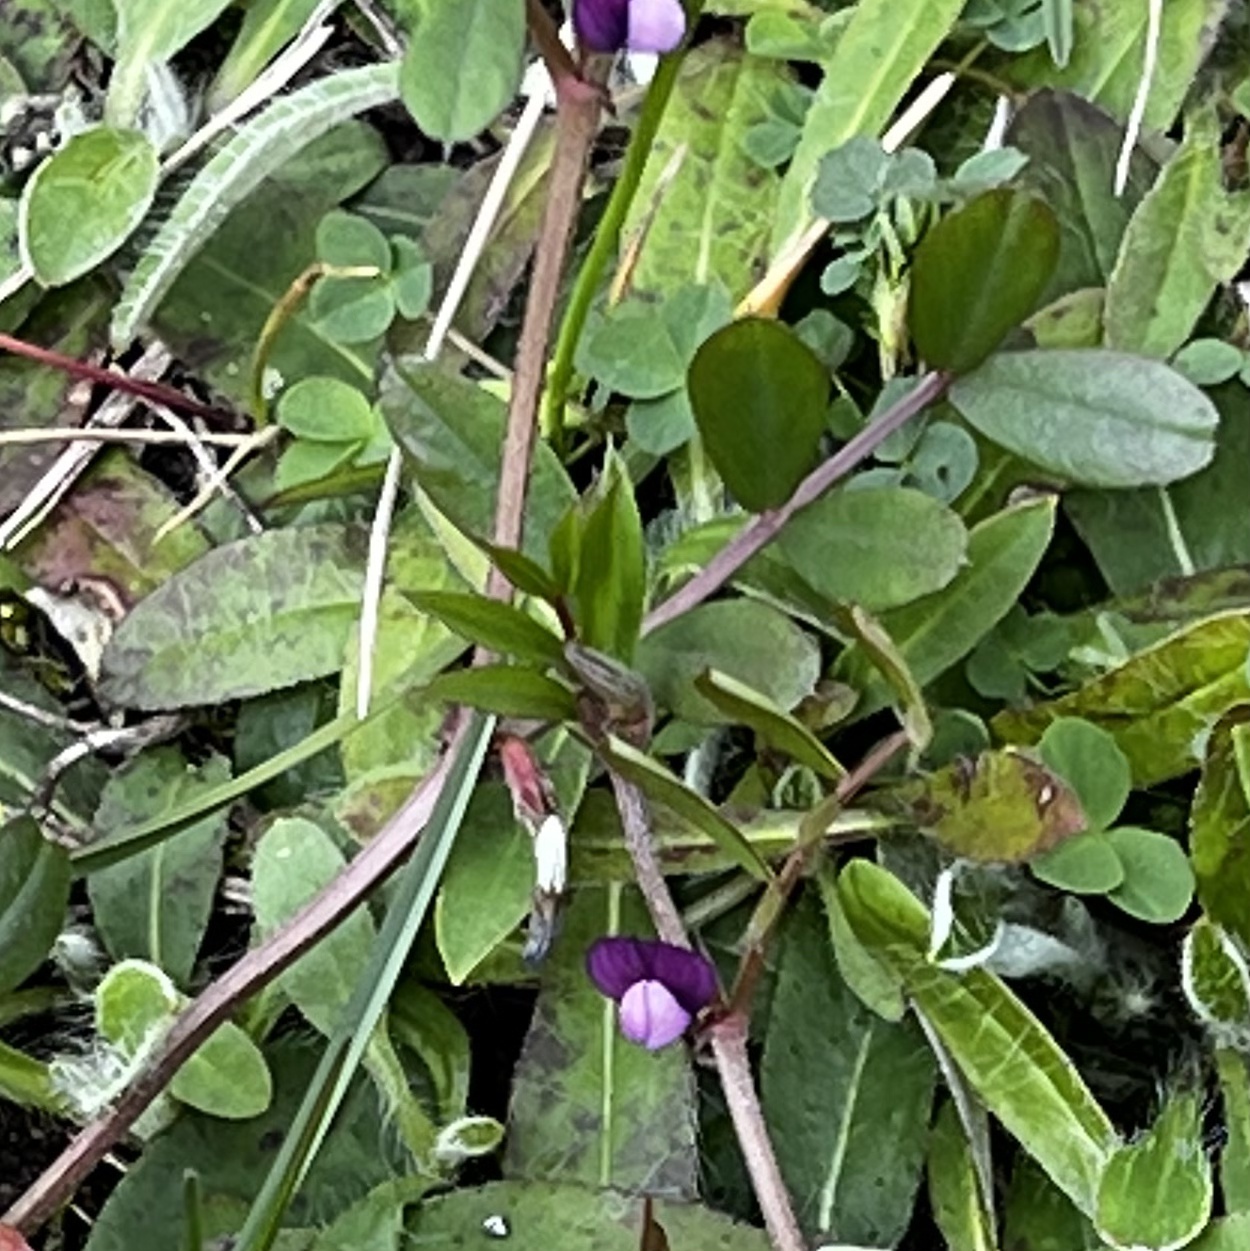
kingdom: Plantae
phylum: Tracheophyta
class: Magnoliopsida
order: Fabales
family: Fabaceae
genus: Vicia
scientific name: Vicia lathyroides
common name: Spring vetch
